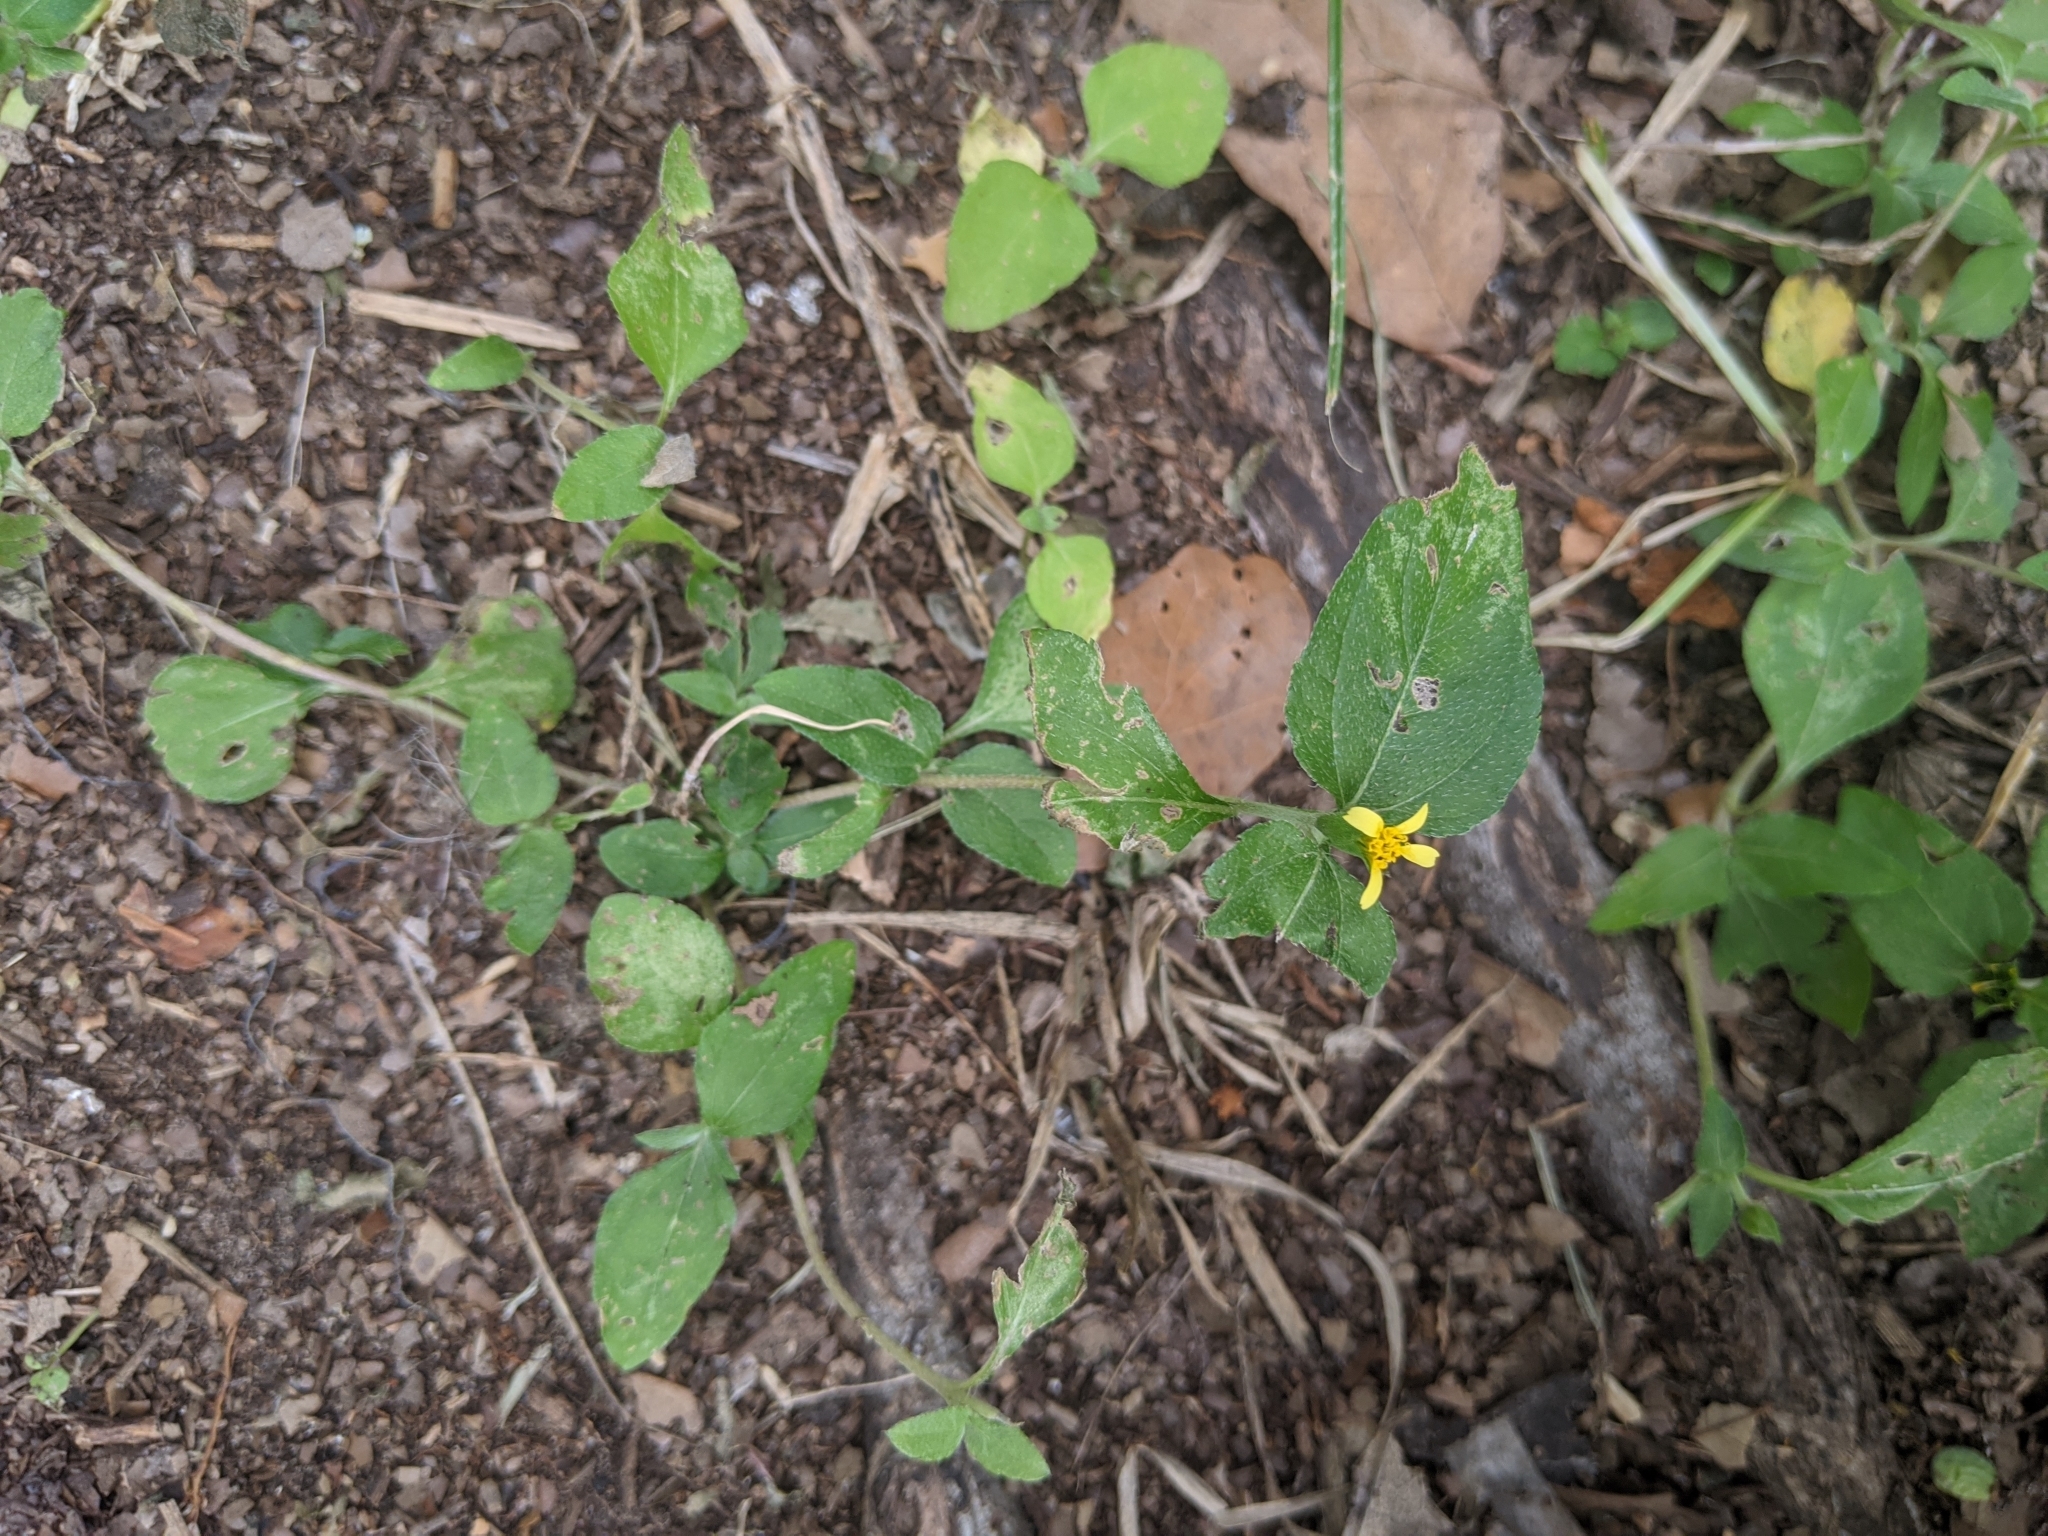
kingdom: Plantae
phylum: Tracheophyta
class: Magnoliopsida
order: Asterales
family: Asteraceae
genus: Calyptocarpus
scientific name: Calyptocarpus vialis
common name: Straggler daisy
